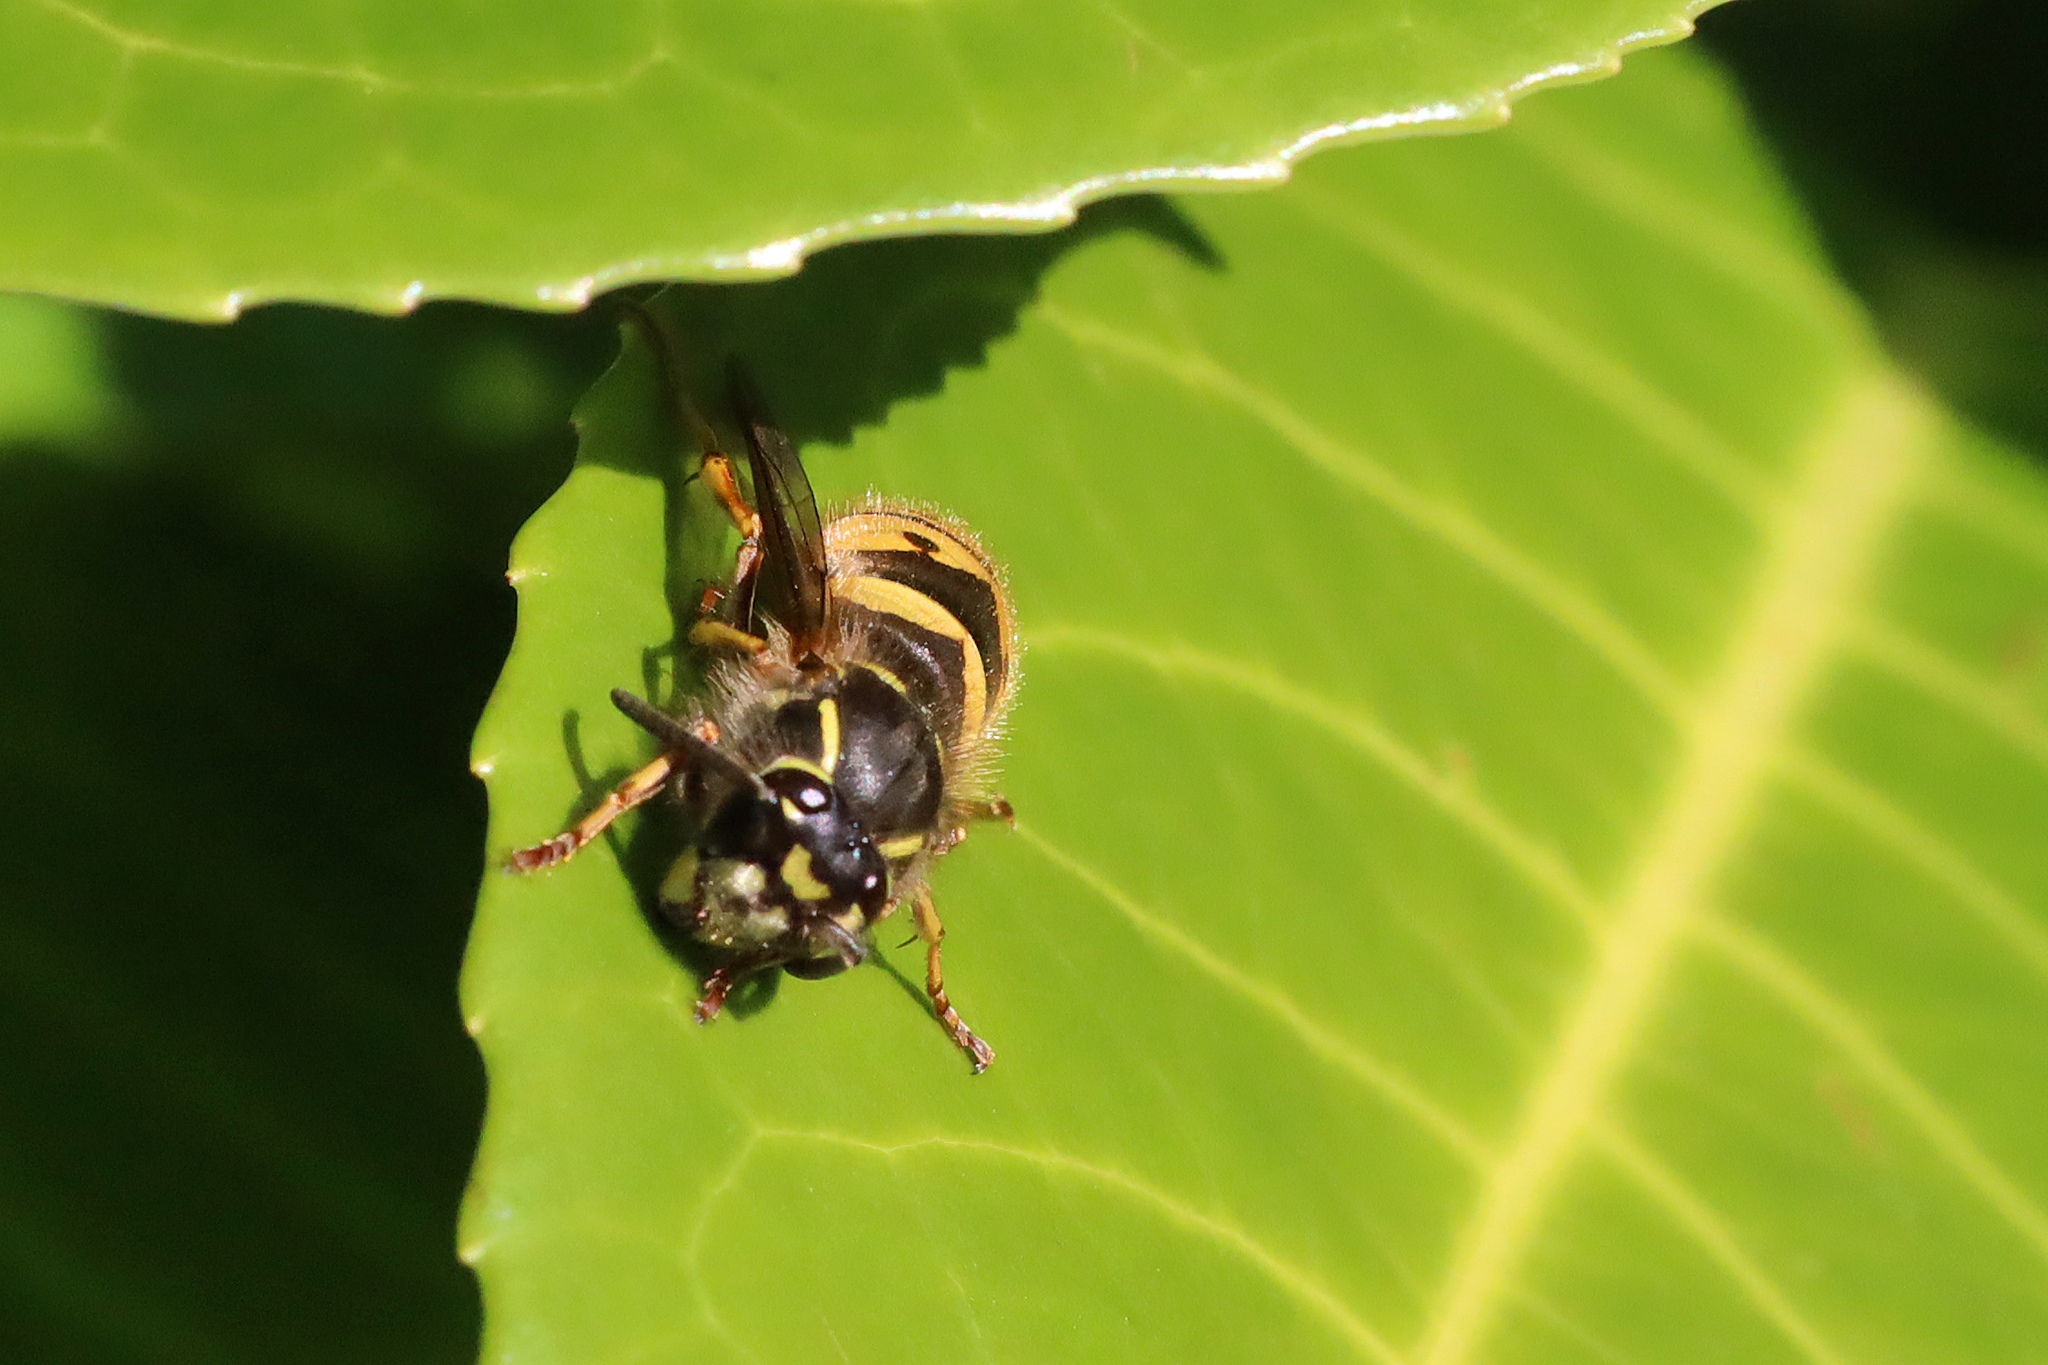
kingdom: Animalia
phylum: Arthropoda
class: Insecta
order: Hymenoptera
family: Vespidae
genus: Vespula
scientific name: Vespula vulgaris
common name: Common wasp
